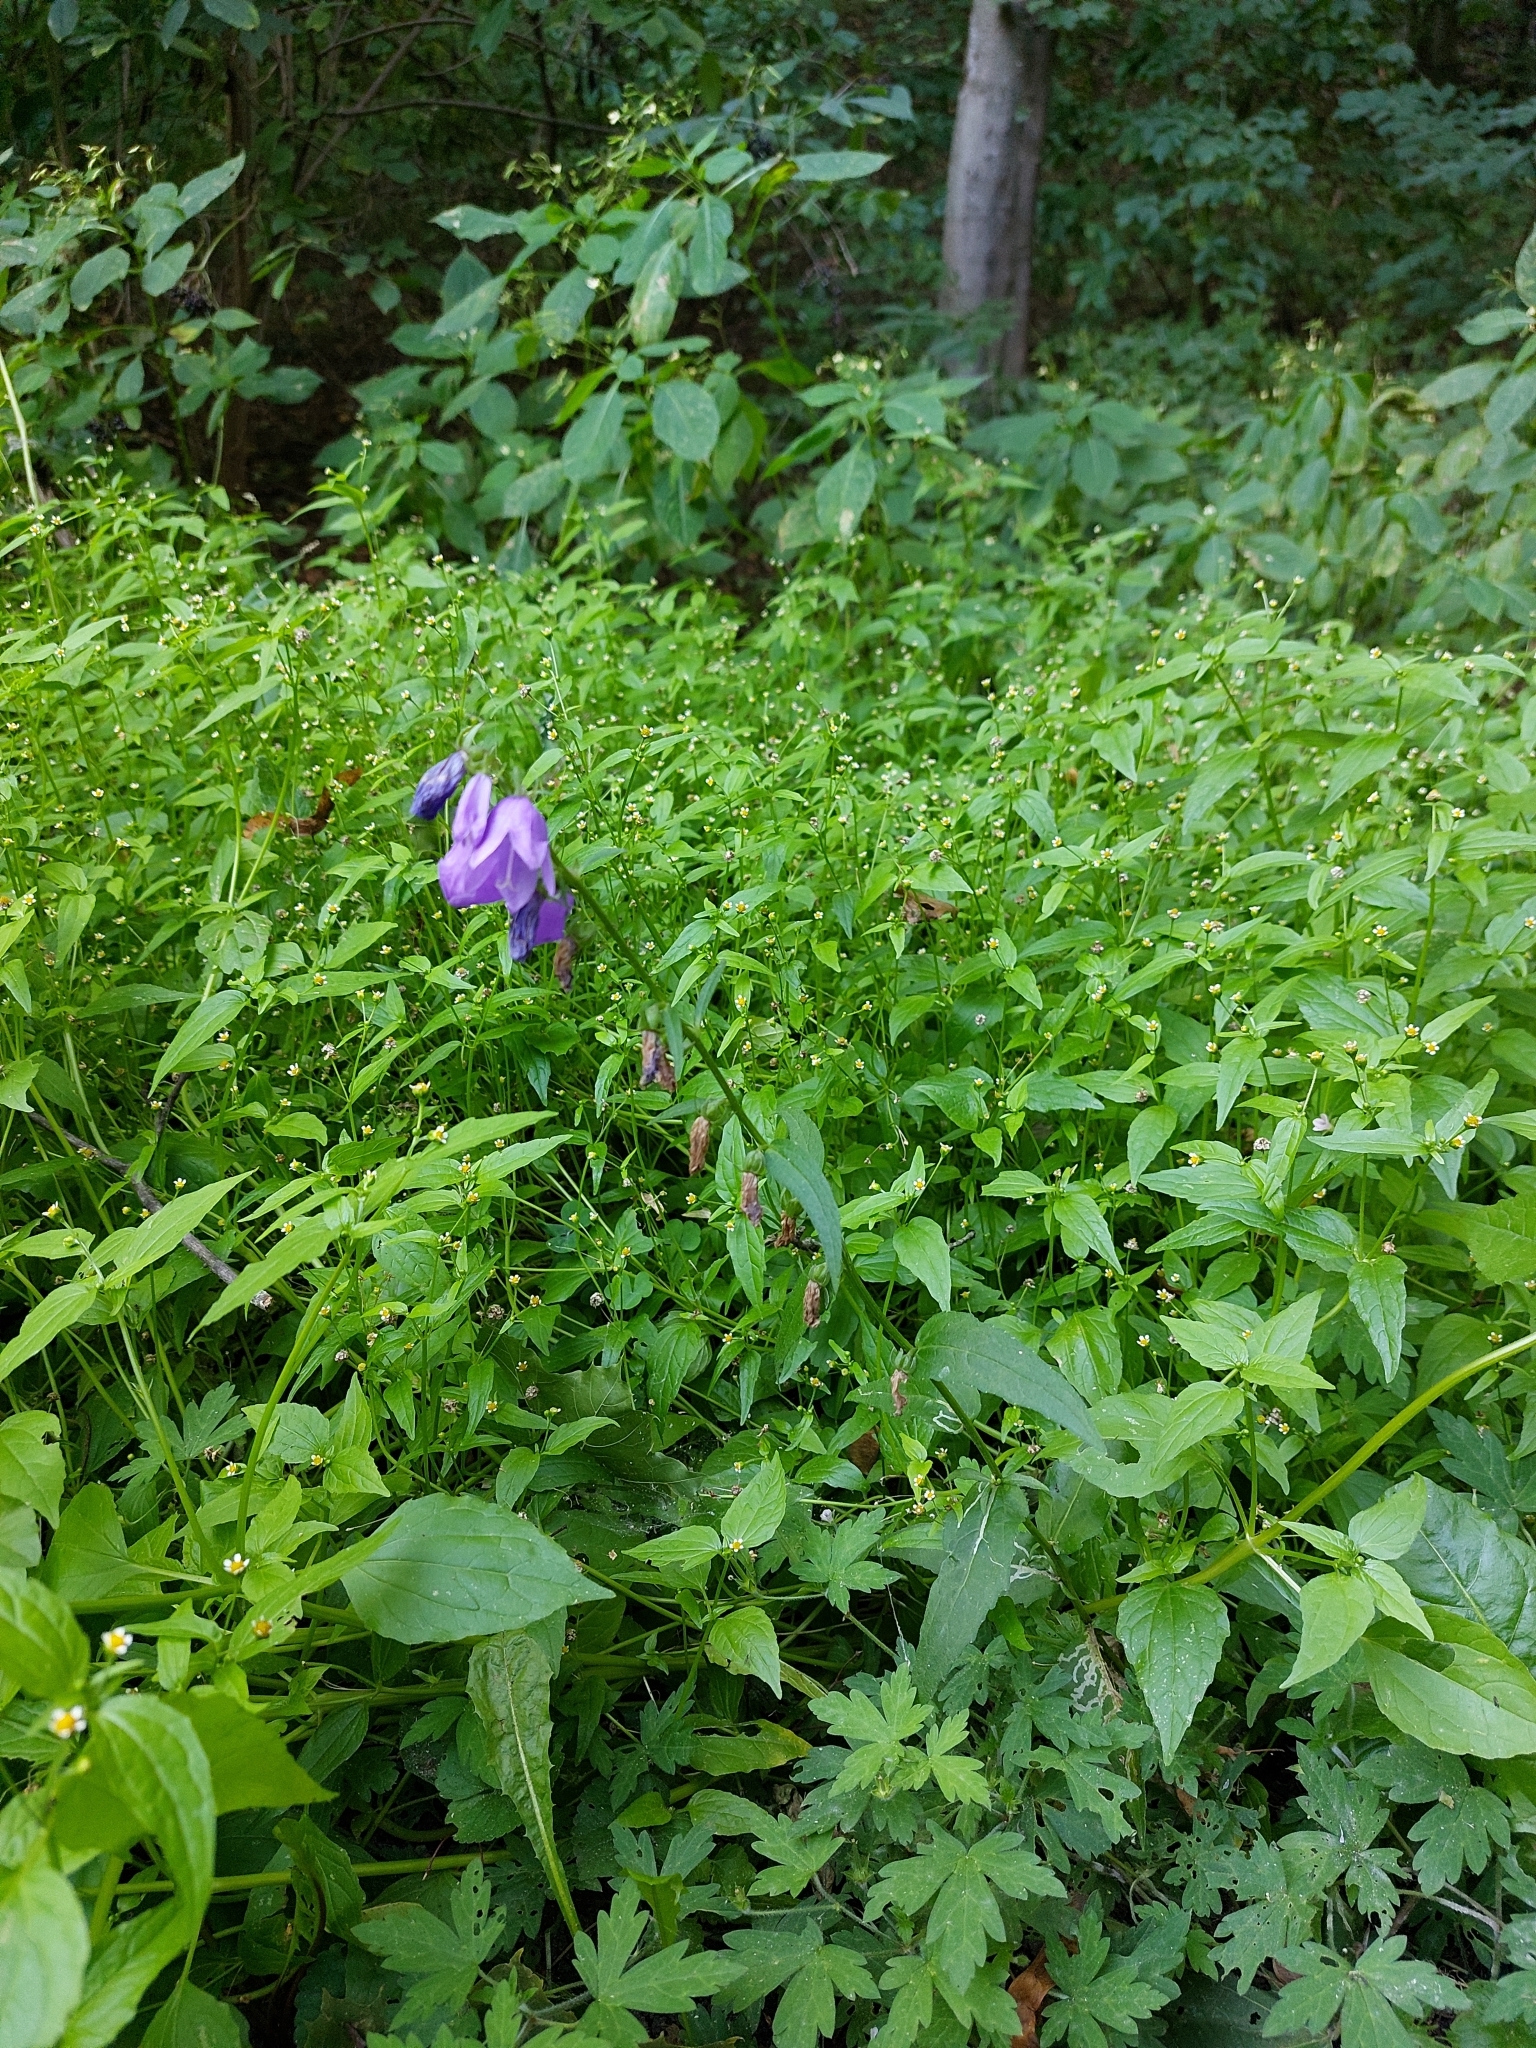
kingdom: Plantae
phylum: Tracheophyta
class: Magnoliopsida
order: Asterales
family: Campanulaceae
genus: Campanula
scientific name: Campanula rapunculoides
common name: Creeping bellflower
